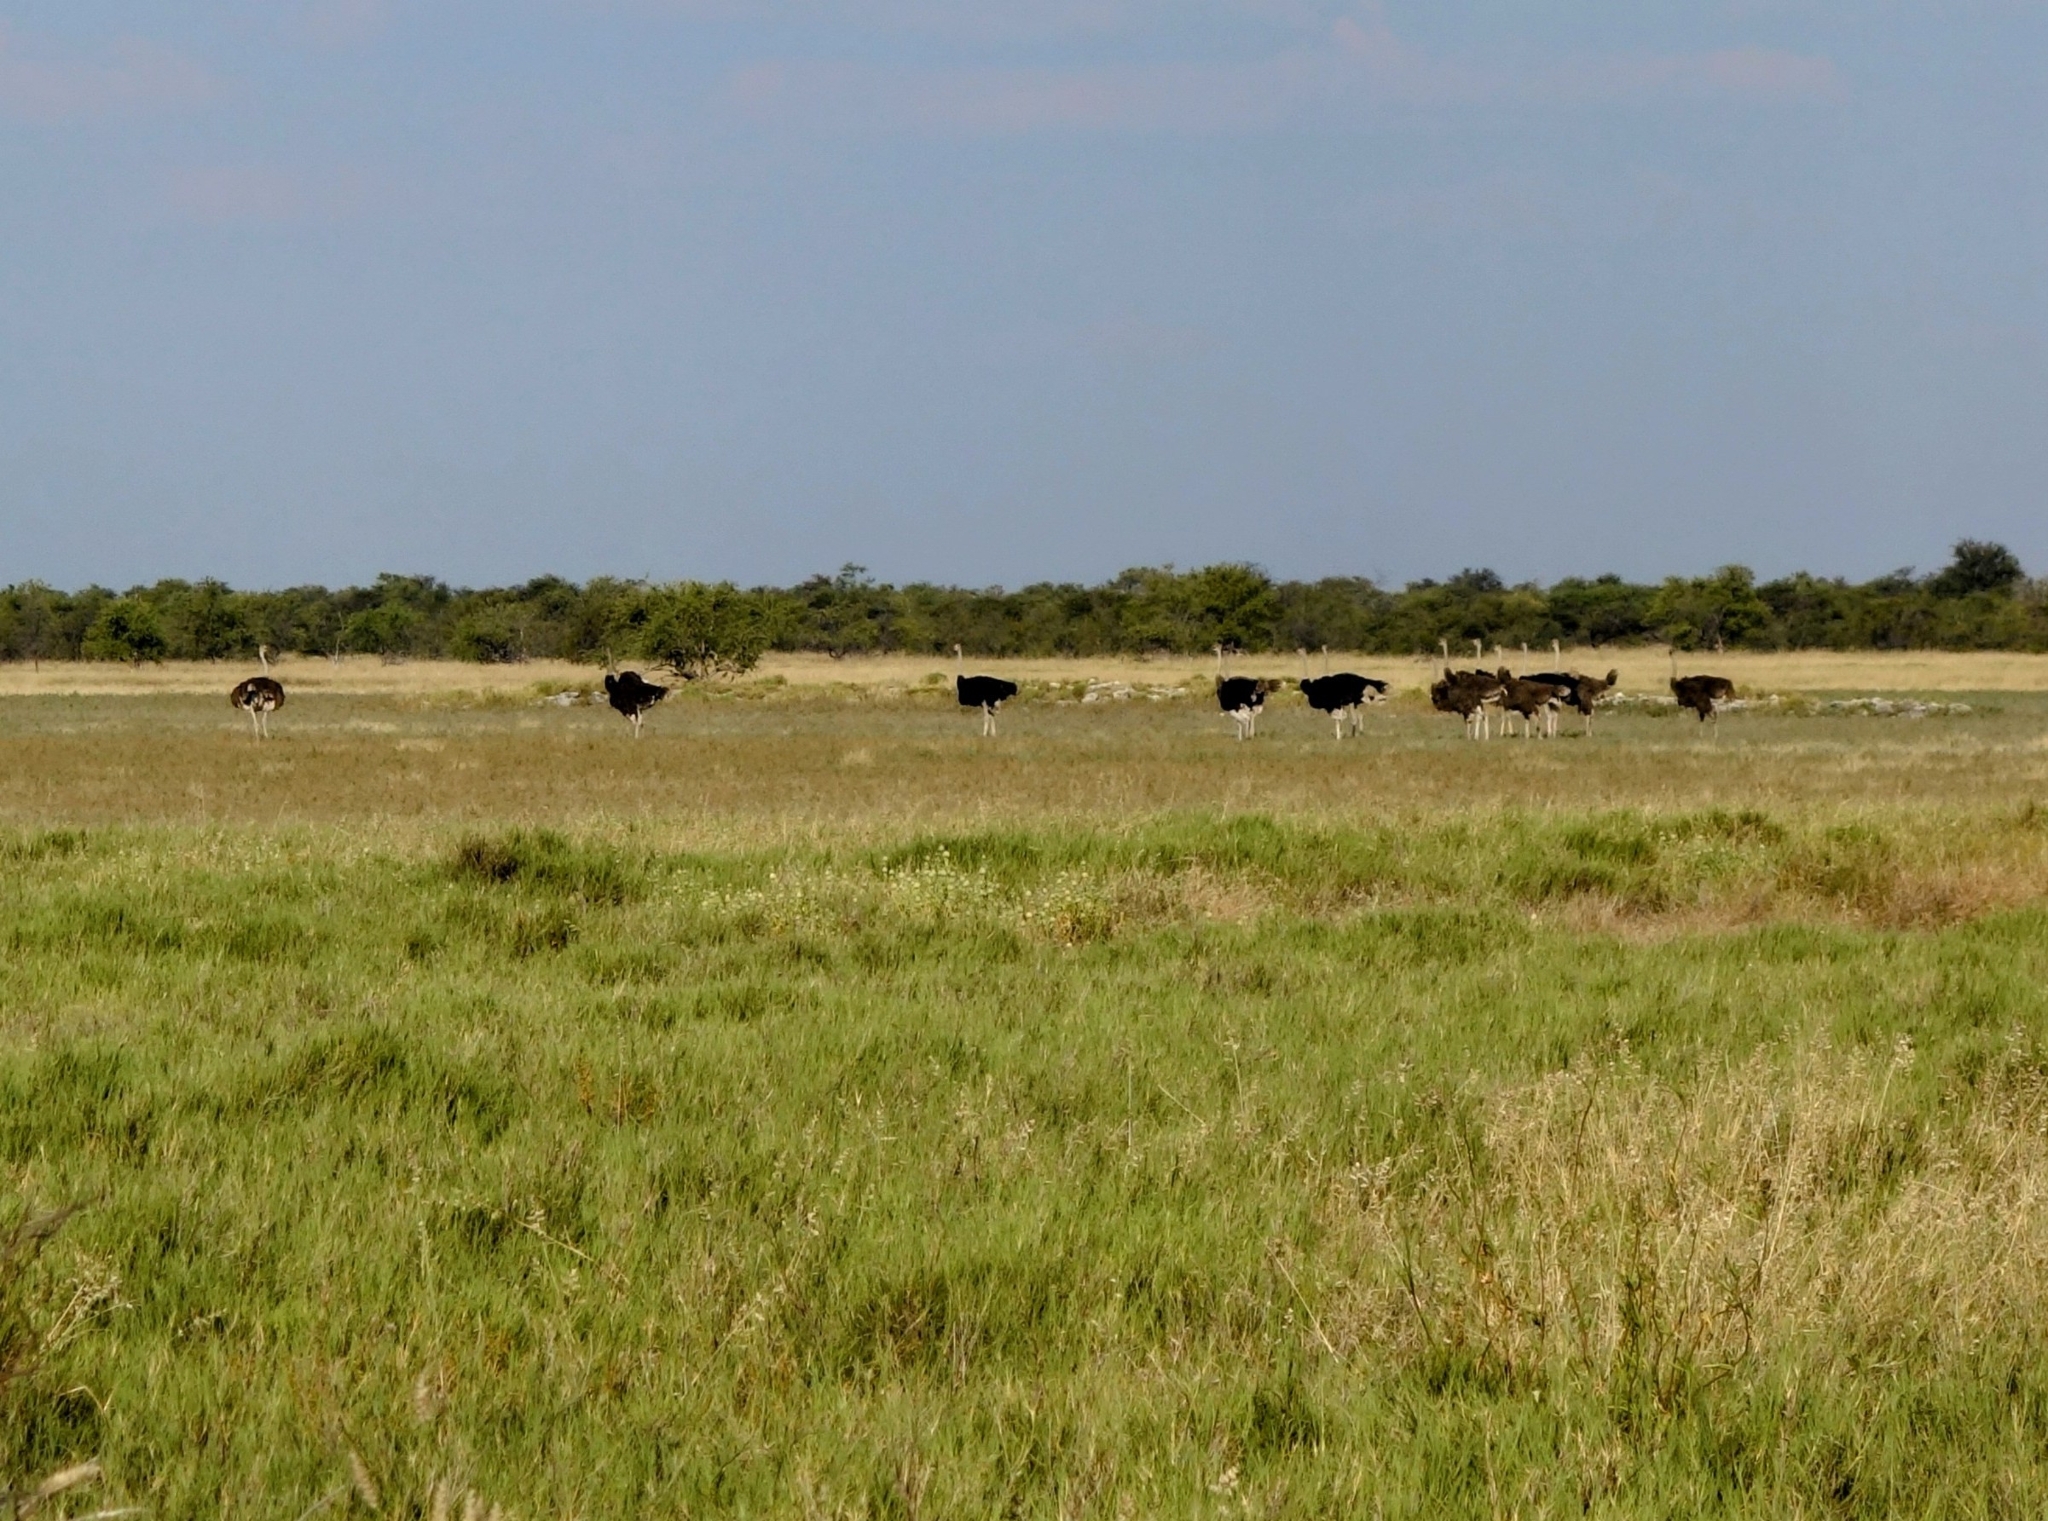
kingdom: Animalia
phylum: Chordata
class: Aves
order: Struthioniformes
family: Struthionidae
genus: Struthio
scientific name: Struthio camelus
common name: Common ostrich
